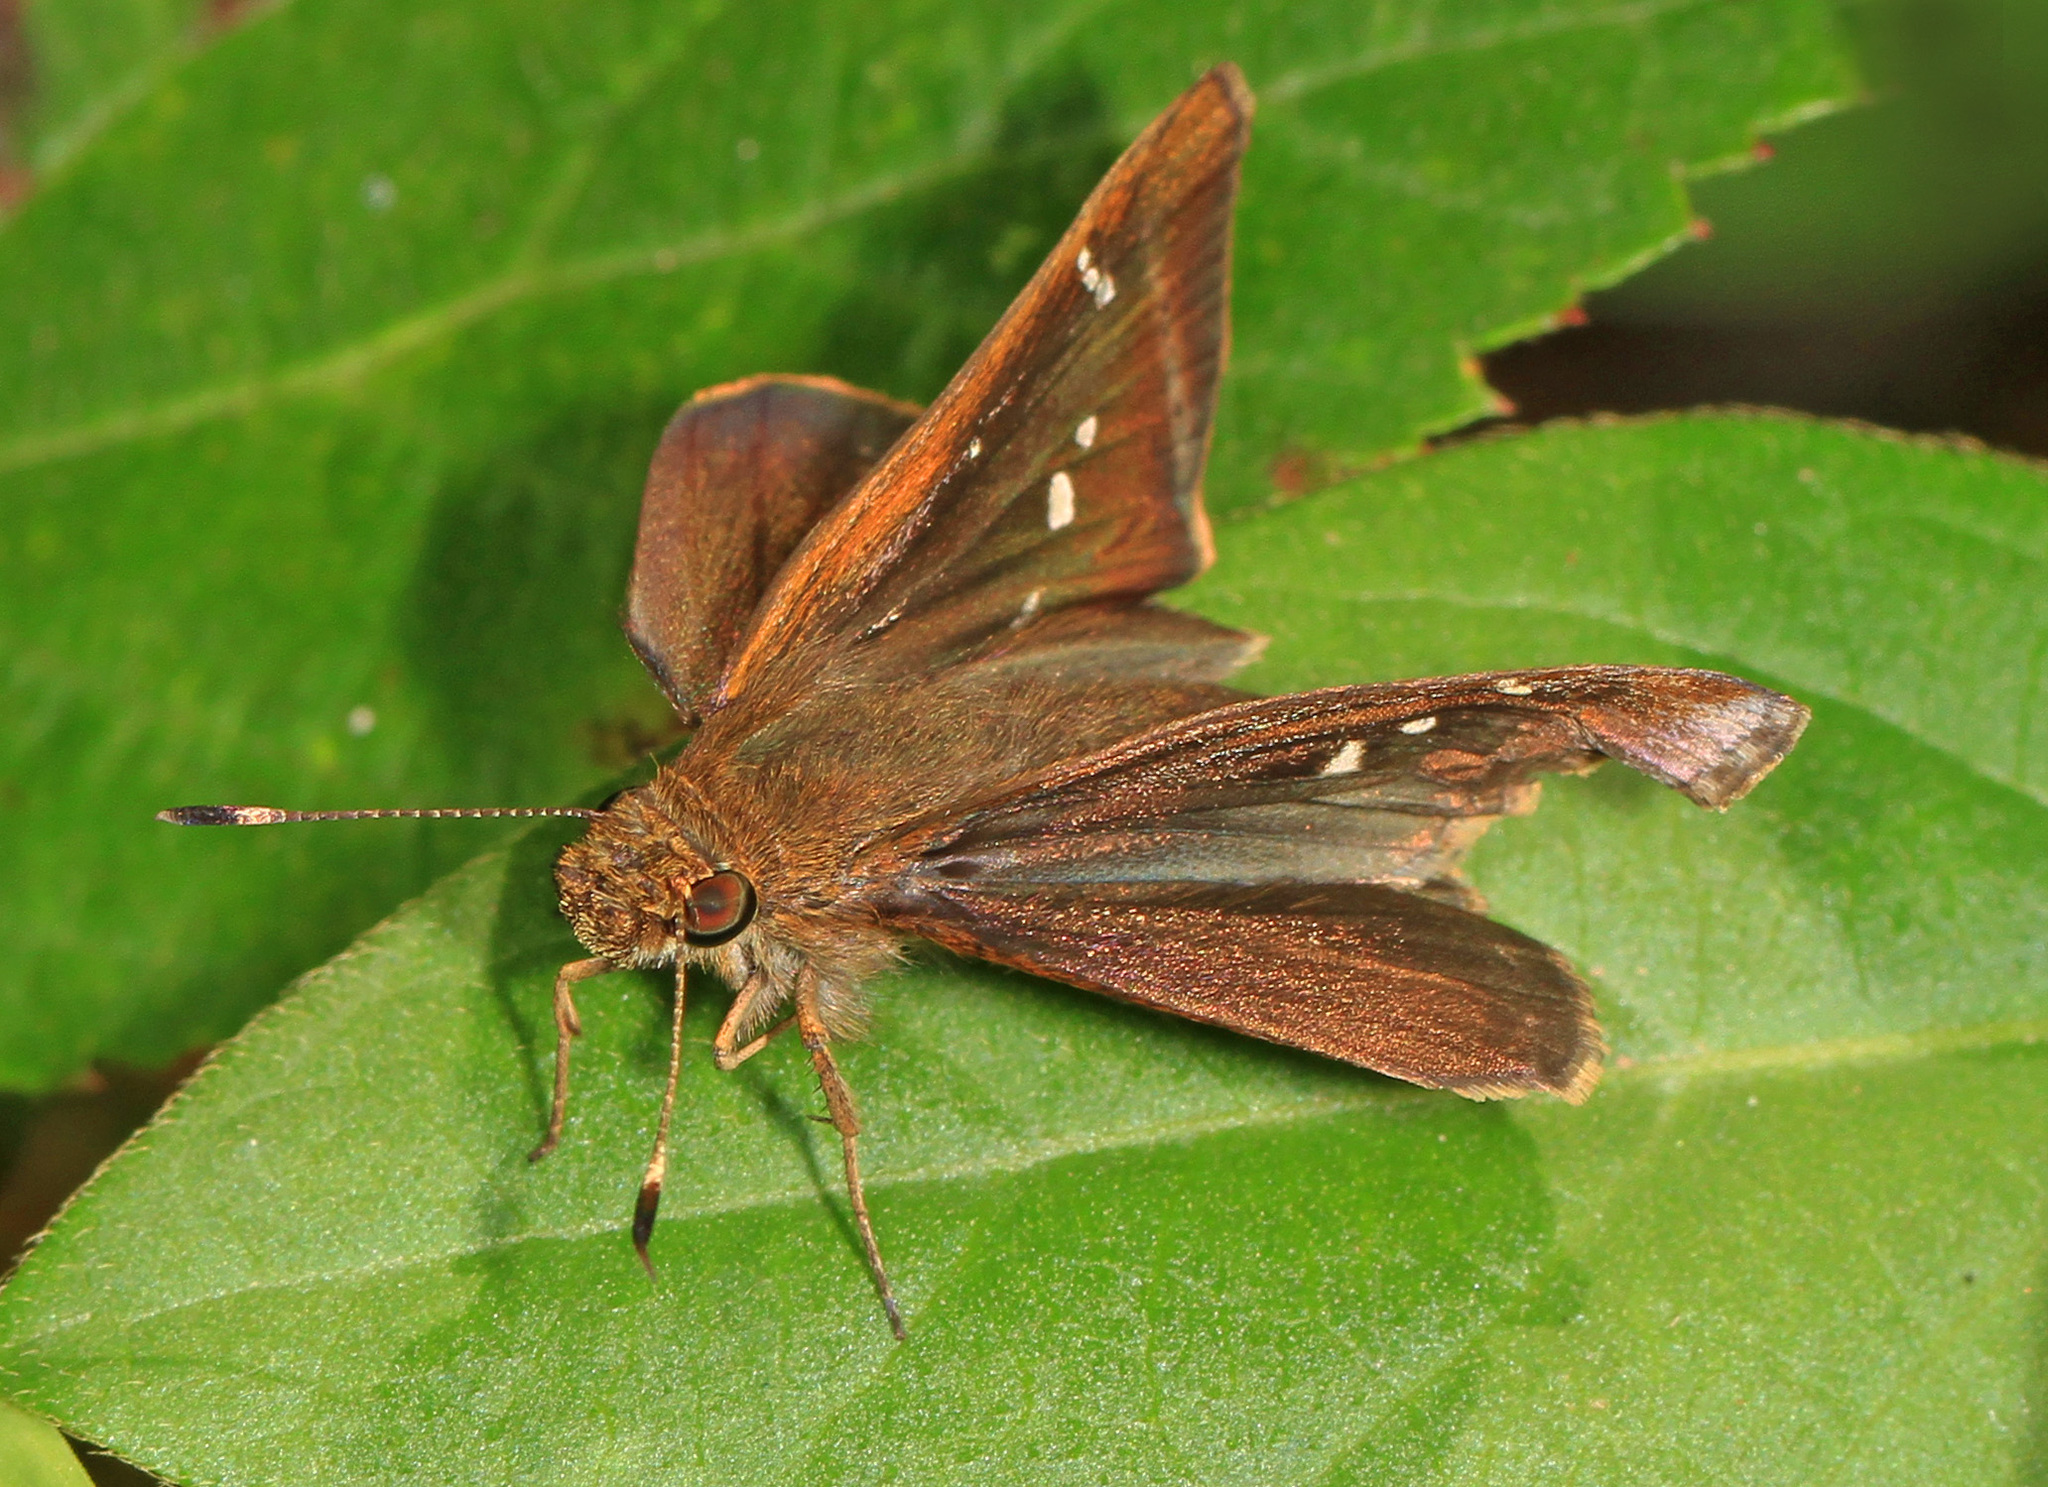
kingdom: Animalia
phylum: Arthropoda
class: Insecta
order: Lepidoptera
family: Hesperiidae
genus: Lerema
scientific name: Lerema accius
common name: Clouded skipper
